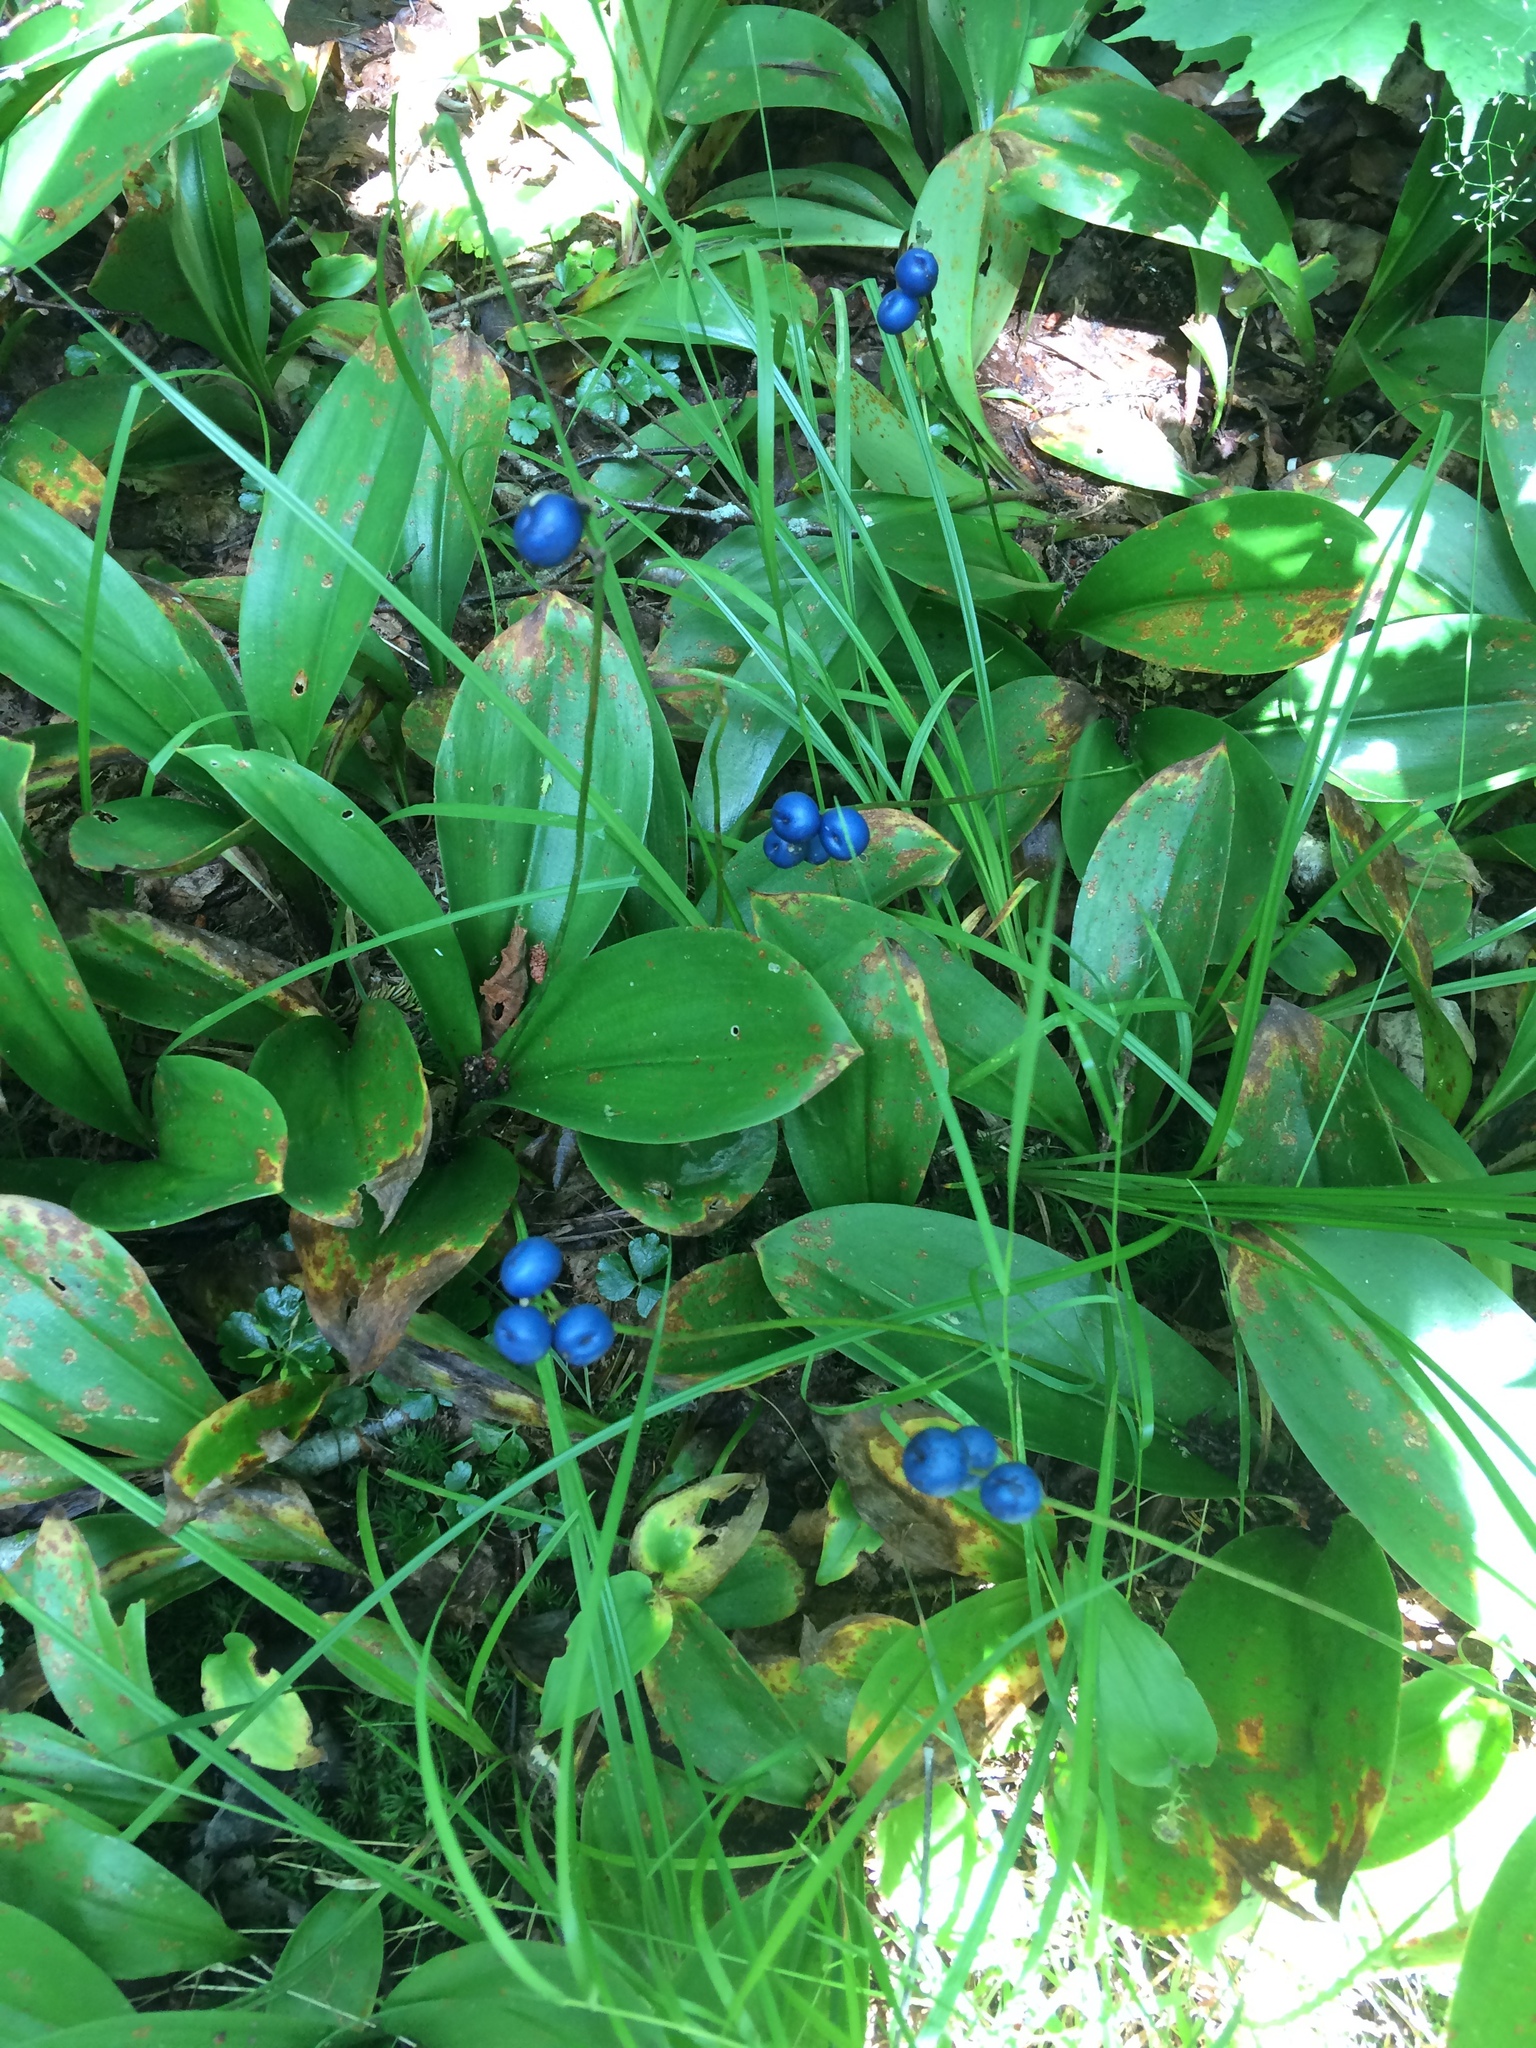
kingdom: Plantae
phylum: Tracheophyta
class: Liliopsida
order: Liliales
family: Liliaceae
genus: Clintonia
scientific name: Clintonia borealis
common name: Yellow clintonia
